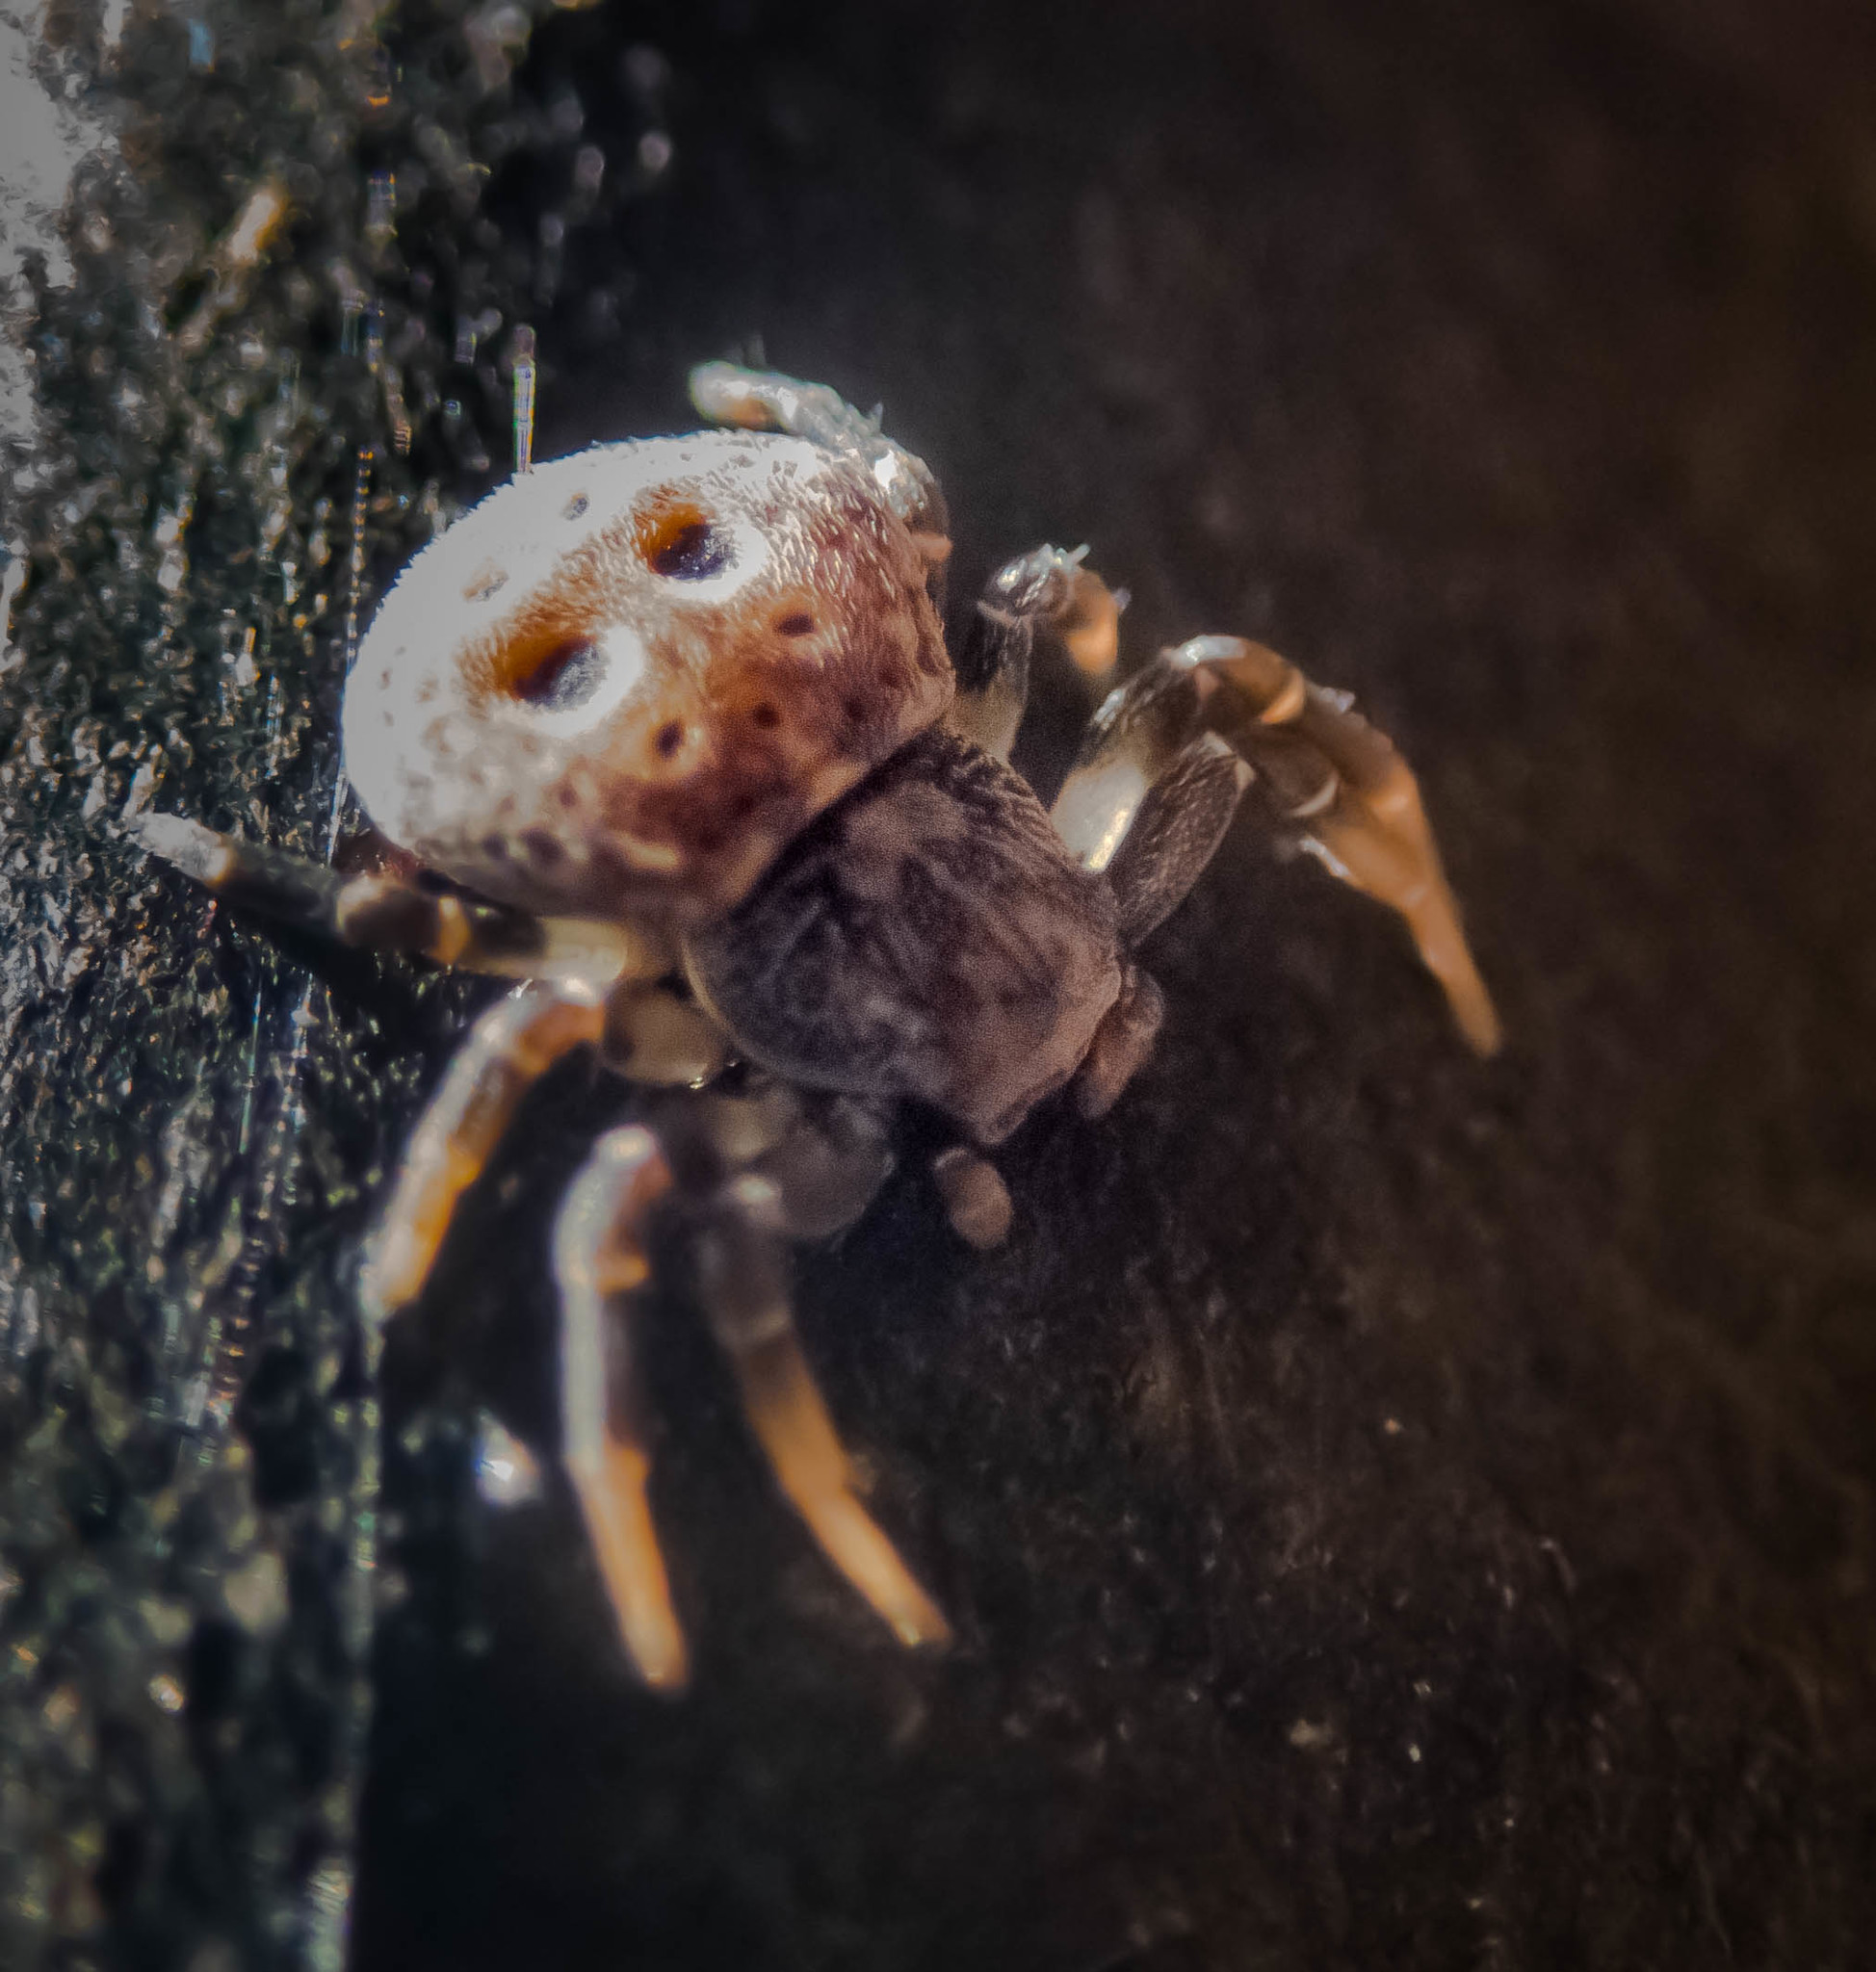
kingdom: Animalia
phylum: Arthropoda
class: Arachnida
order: Araneae
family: Thomisidae
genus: Cymbacha
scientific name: Cymbacha ocellata
